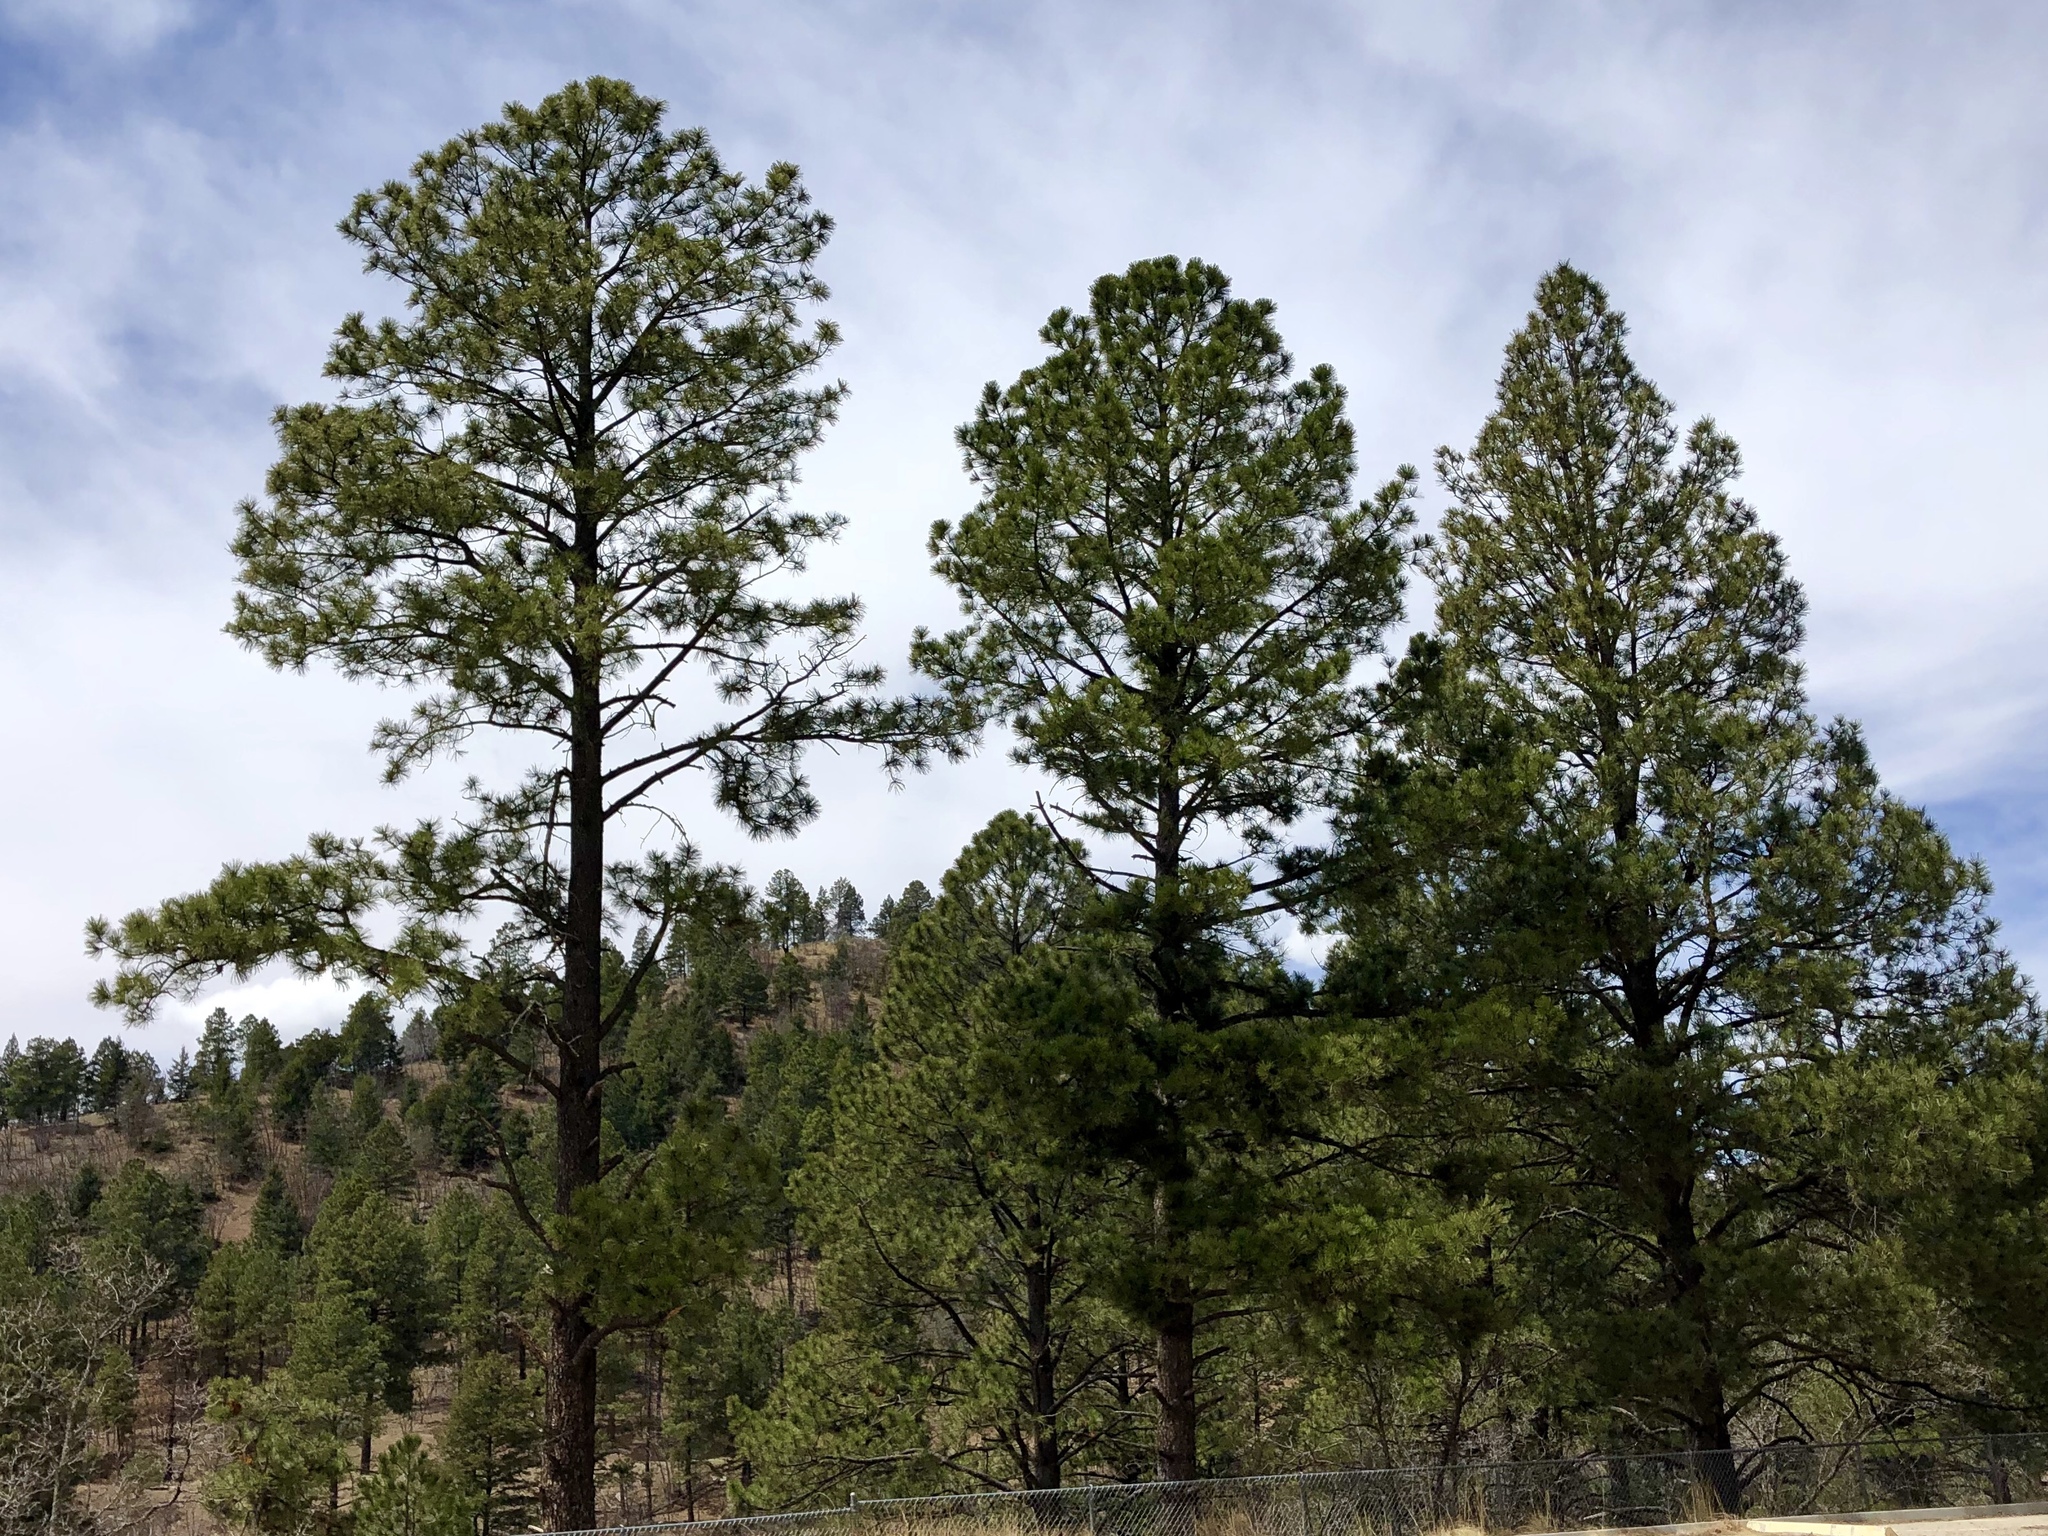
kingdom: Plantae
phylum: Tracheophyta
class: Pinopsida
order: Pinales
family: Pinaceae
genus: Pinus
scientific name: Pinus ponderosa
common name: Western yellow-pine
